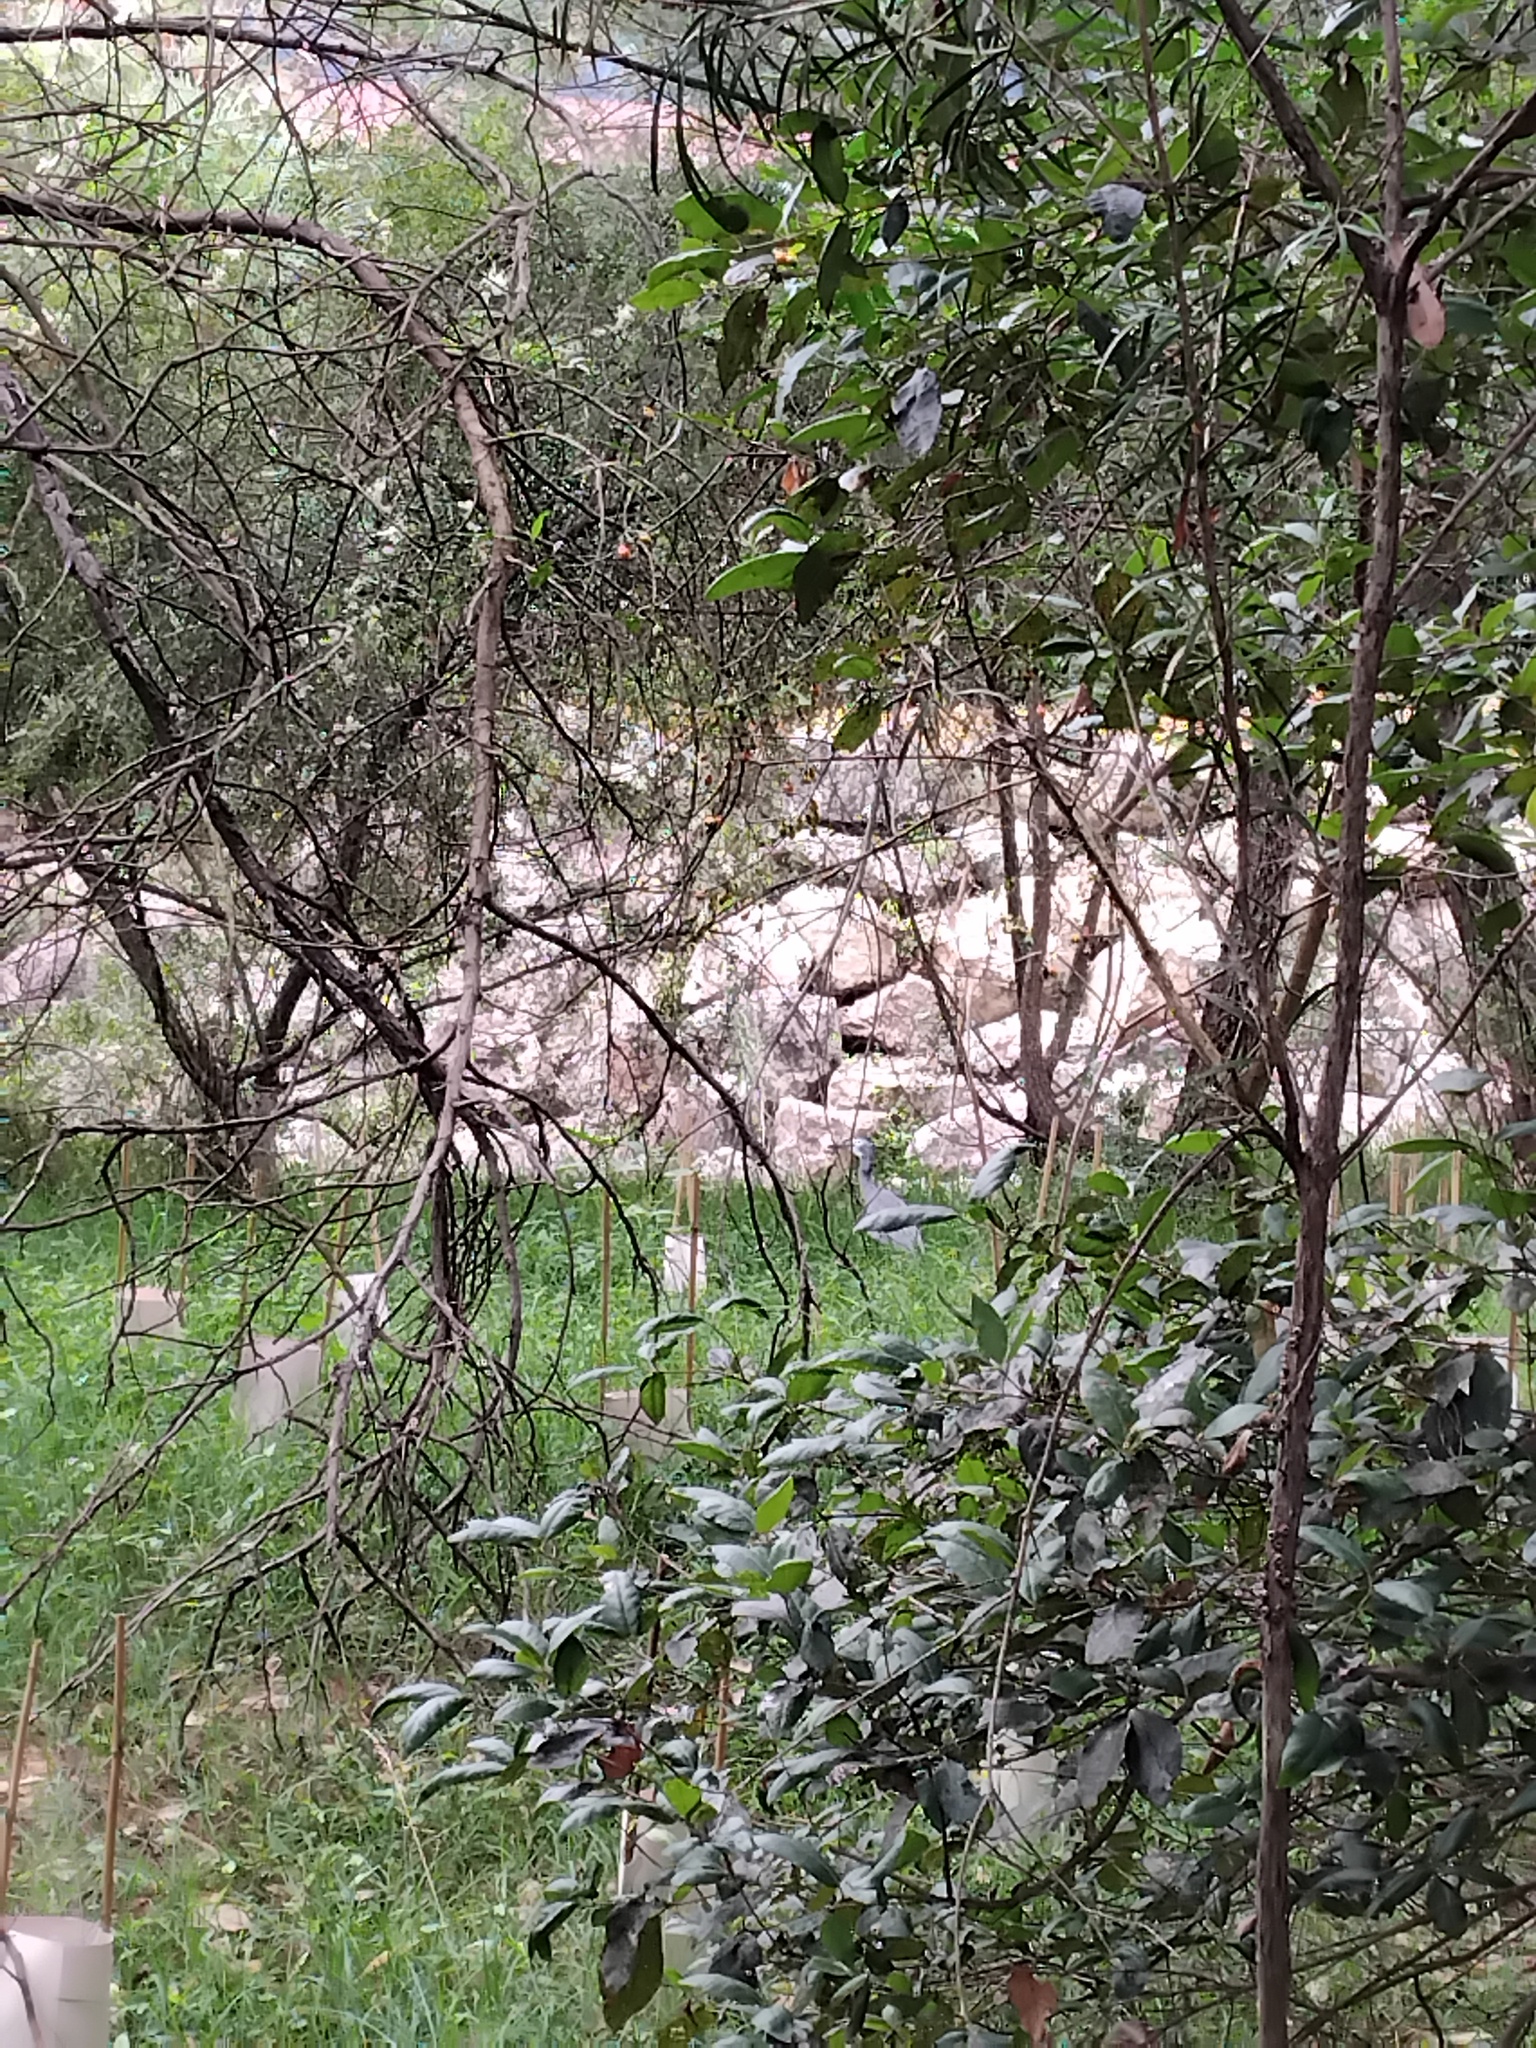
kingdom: Animalia
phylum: Chordata
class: Aves
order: Pelecaniformes
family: Ardeidae
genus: Egretta
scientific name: Egretta novaehollandiae
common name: White-faced heron
